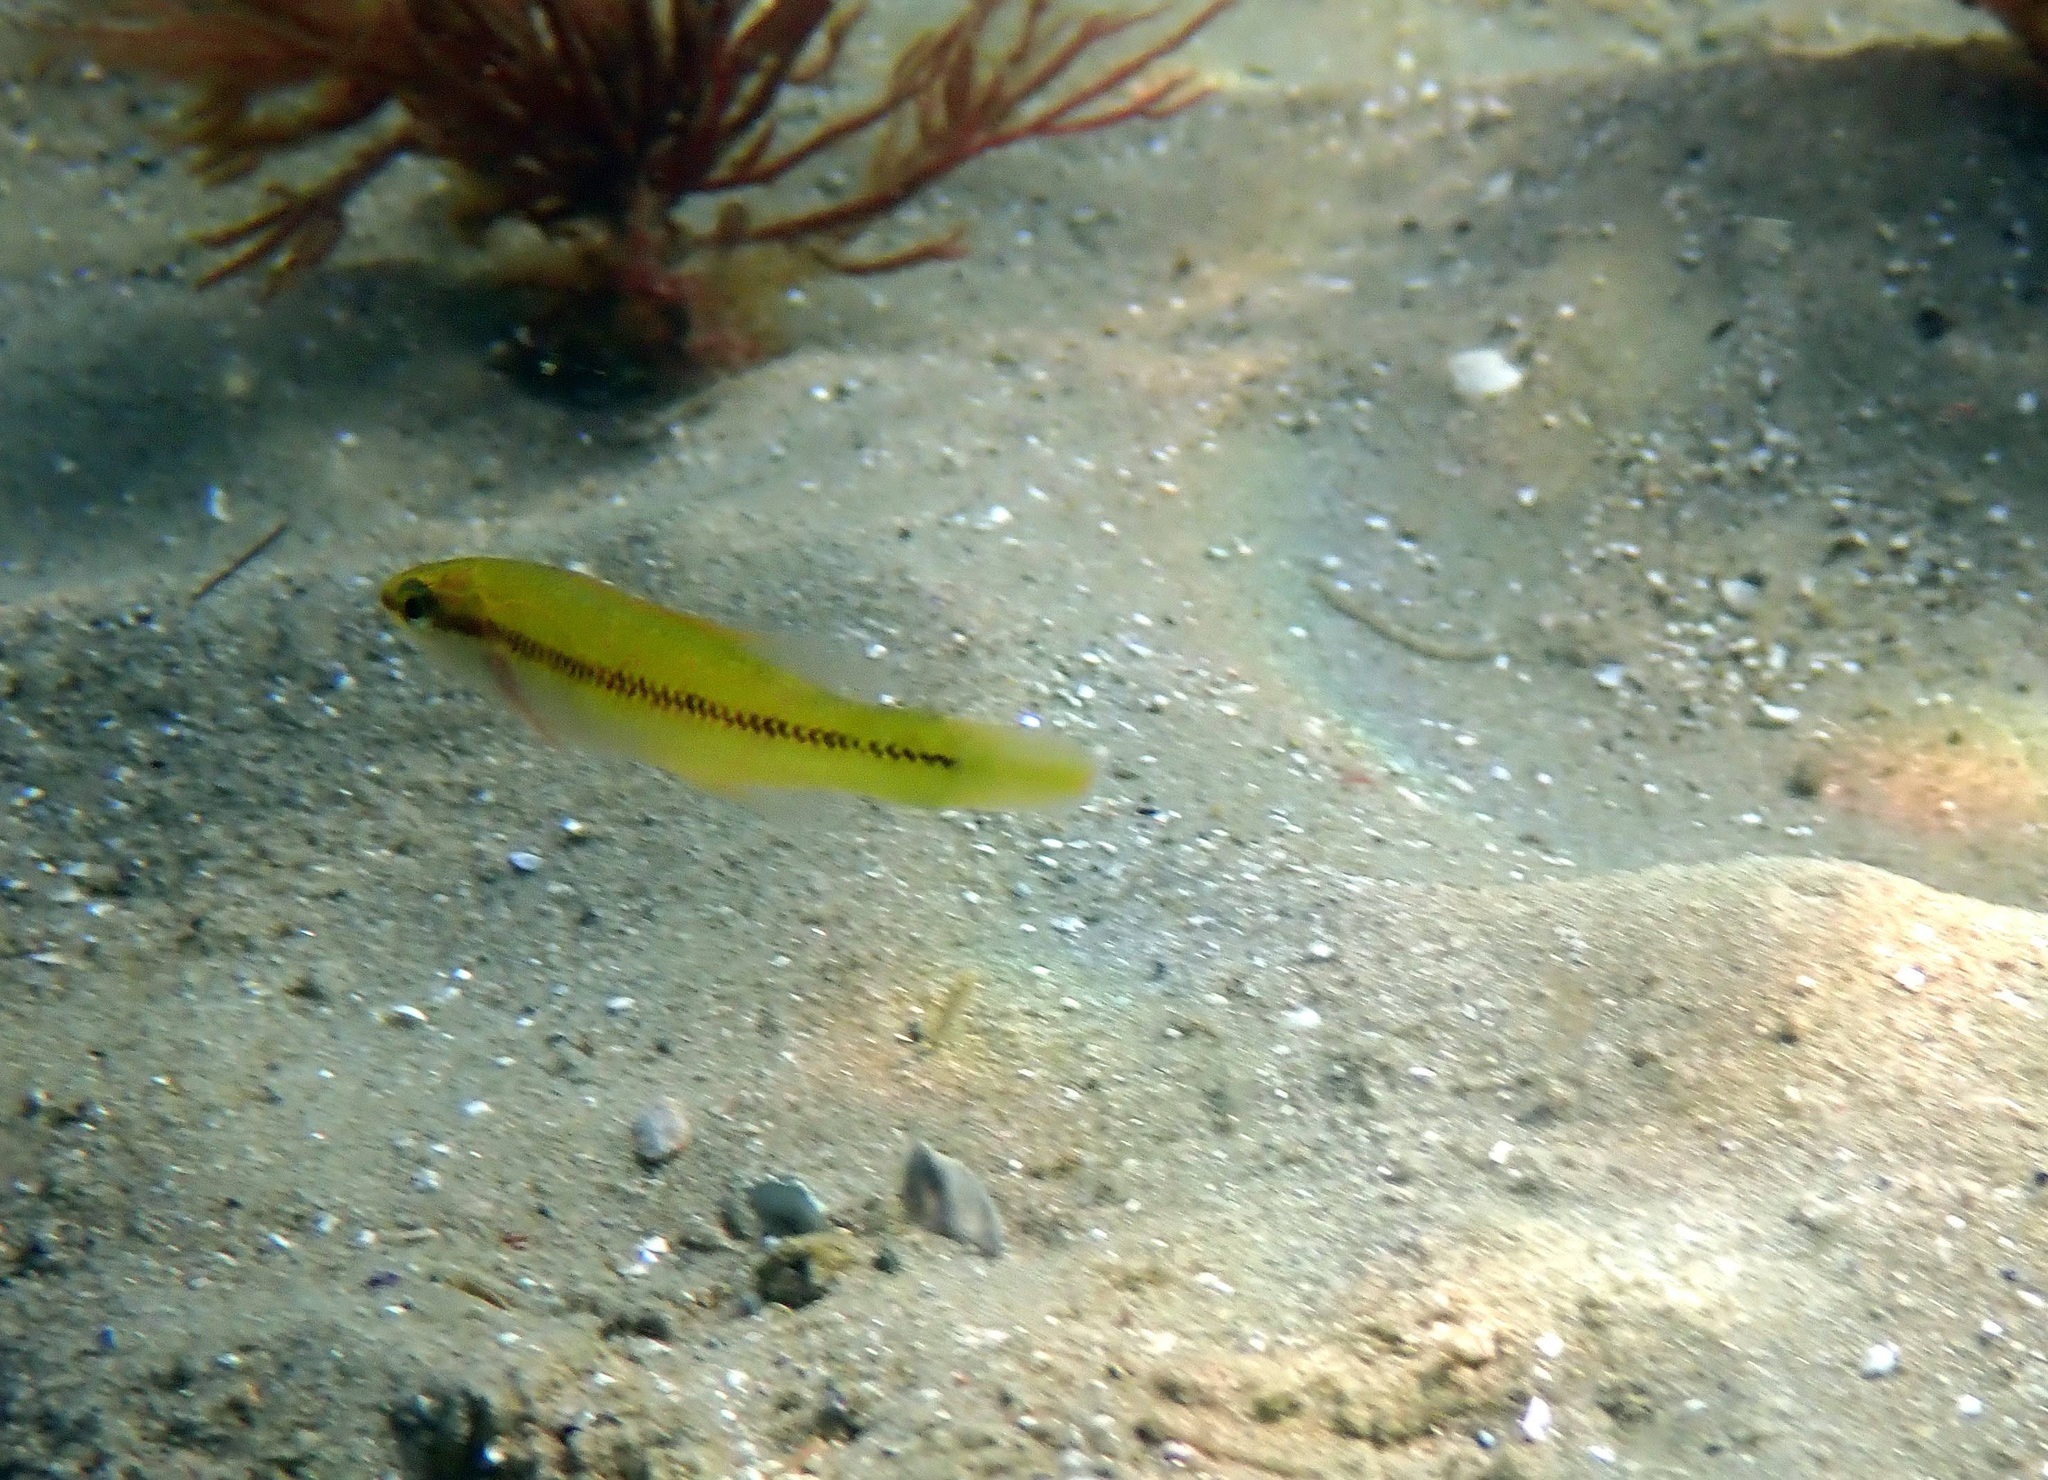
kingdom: Animalia
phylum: Chordata
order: Perciformes
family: Odacidae
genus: Neoodax
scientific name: Neoodax balteatus
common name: Ground mullet
